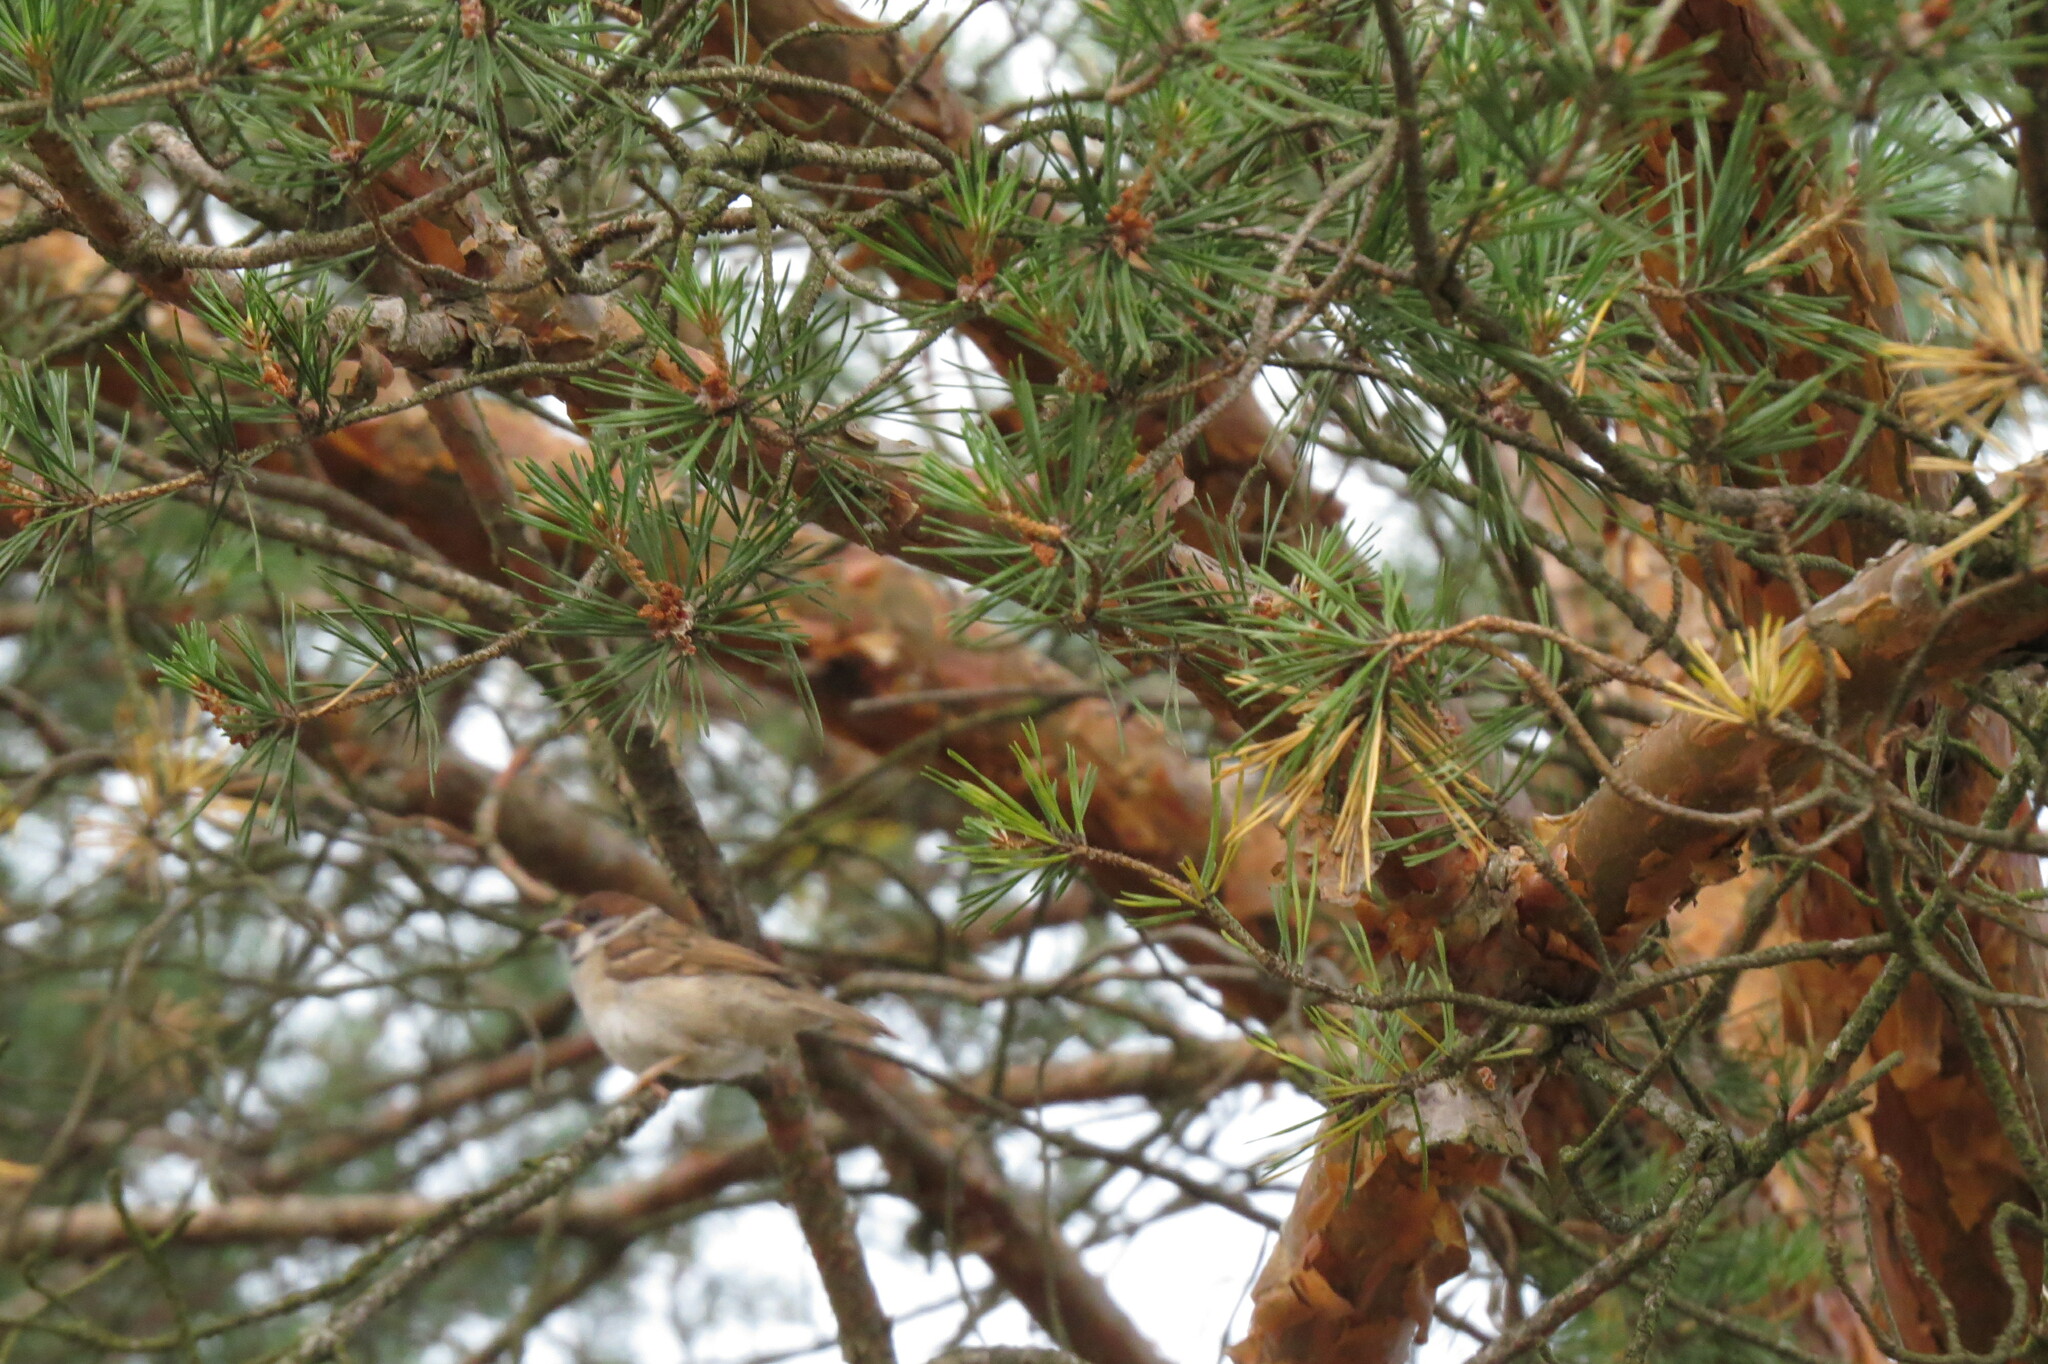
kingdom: Animalia
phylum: Chordata
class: Aves
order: Passeriformes
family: Passeridae
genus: Passer
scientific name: Passer montanus
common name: Eurasian tree sparrow
